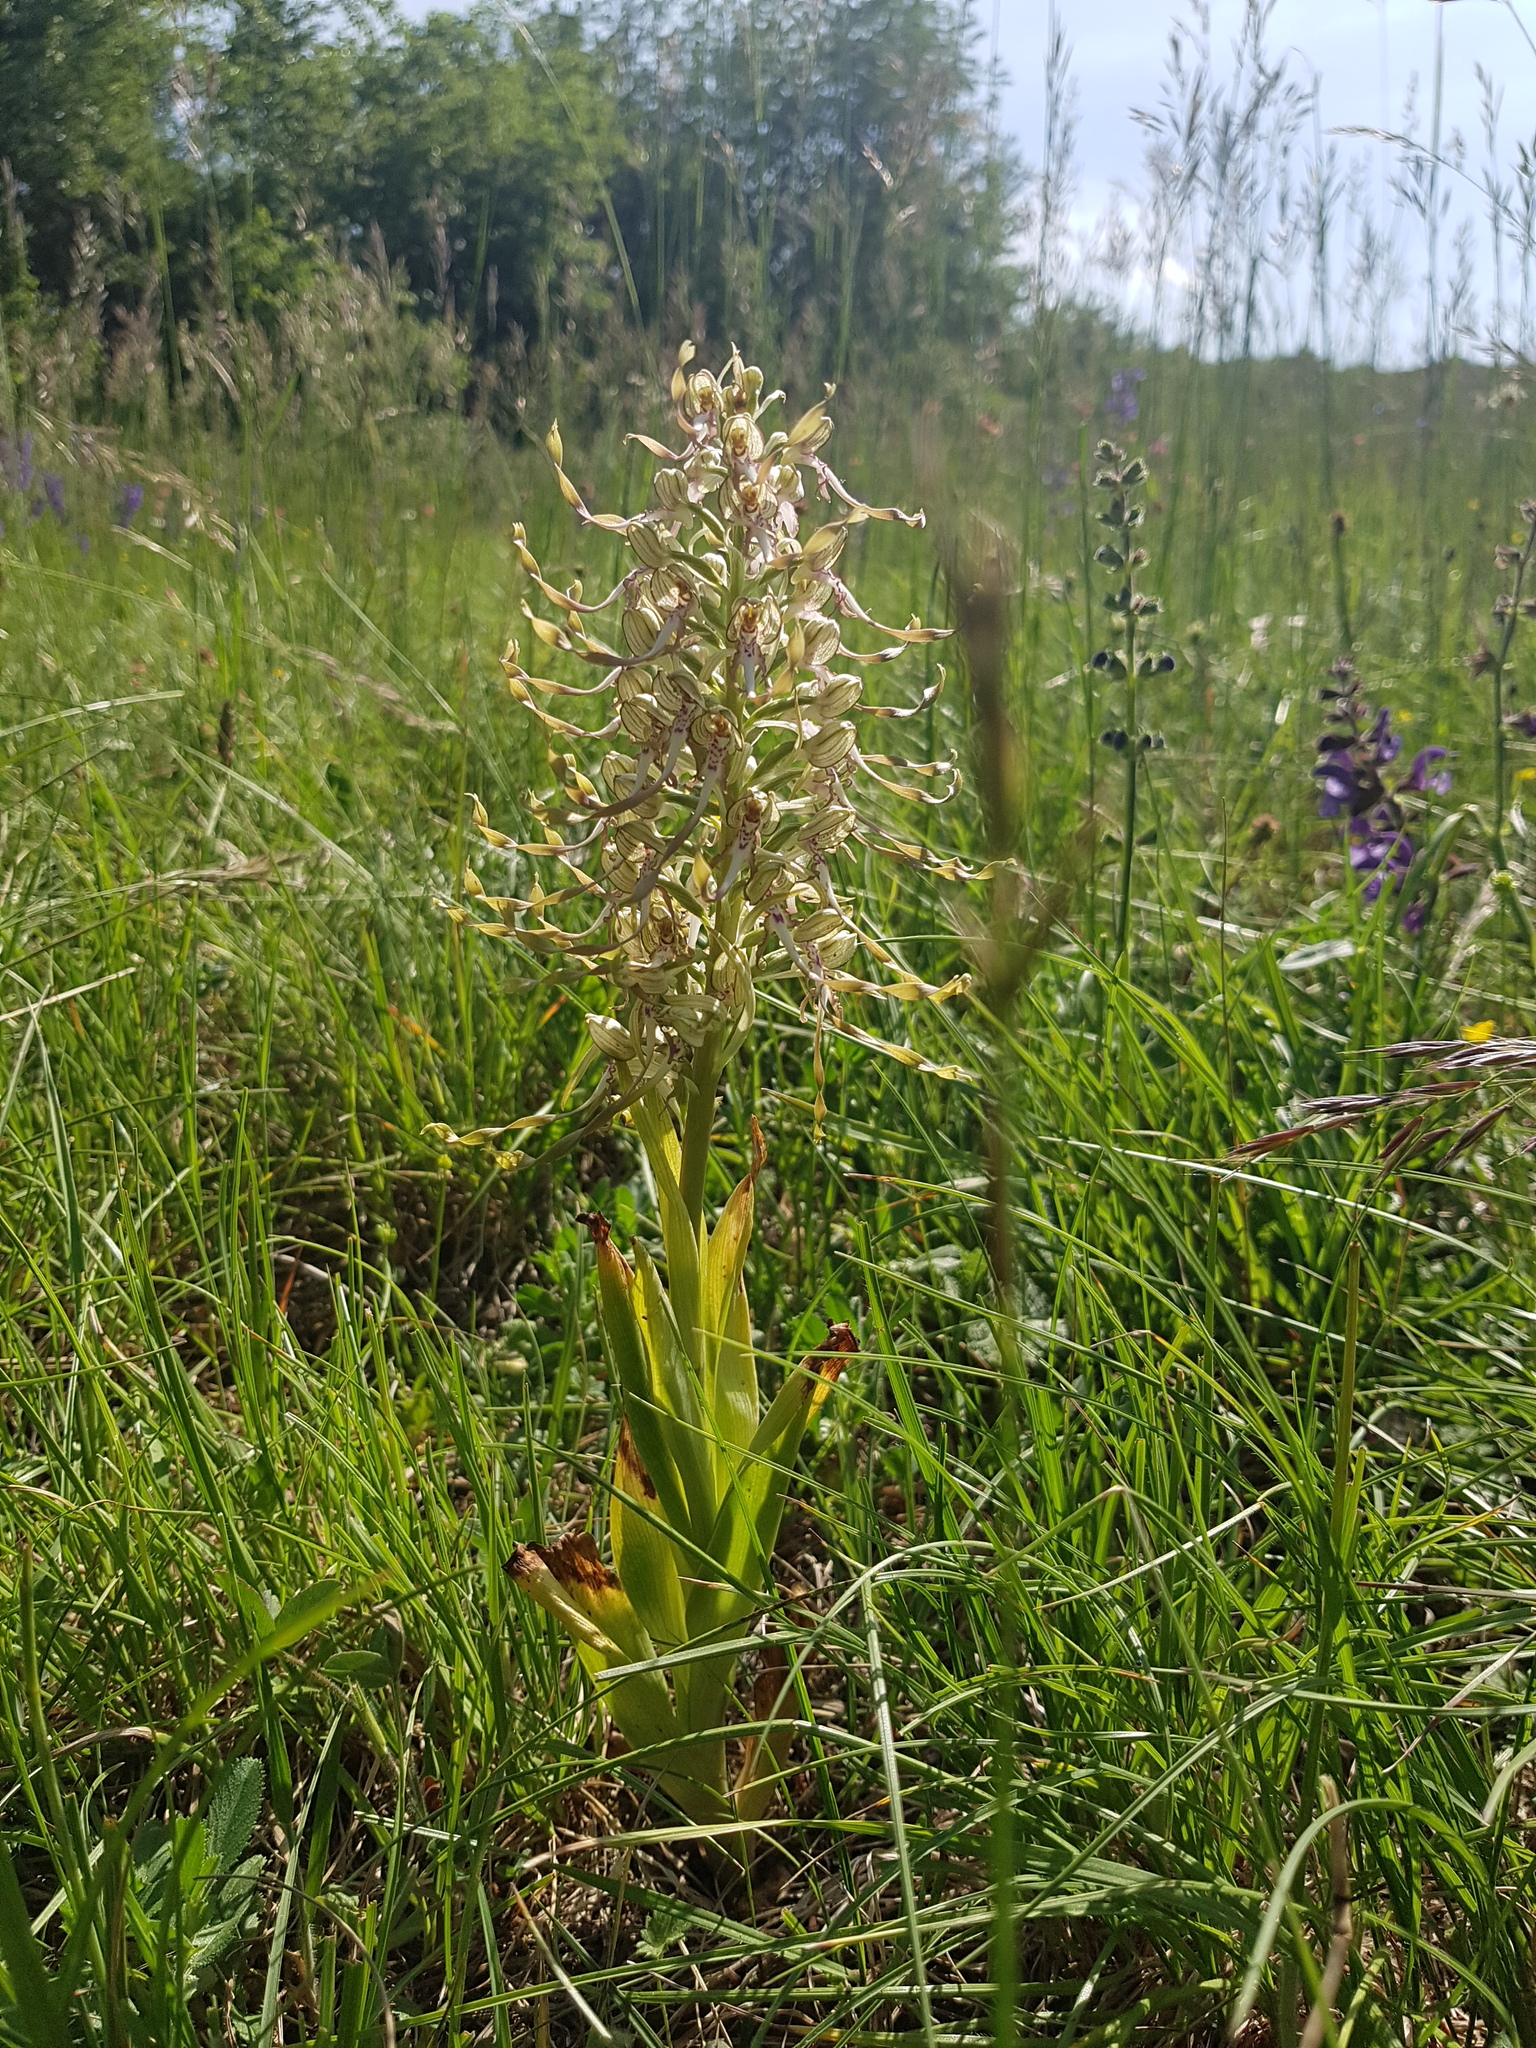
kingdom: Plantae
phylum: Tracheophyta
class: Liliopsida
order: Asparagales
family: Orchidaceae
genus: Himantoglossum
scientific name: Himantoglossum hircinum
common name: Lizard orchid
